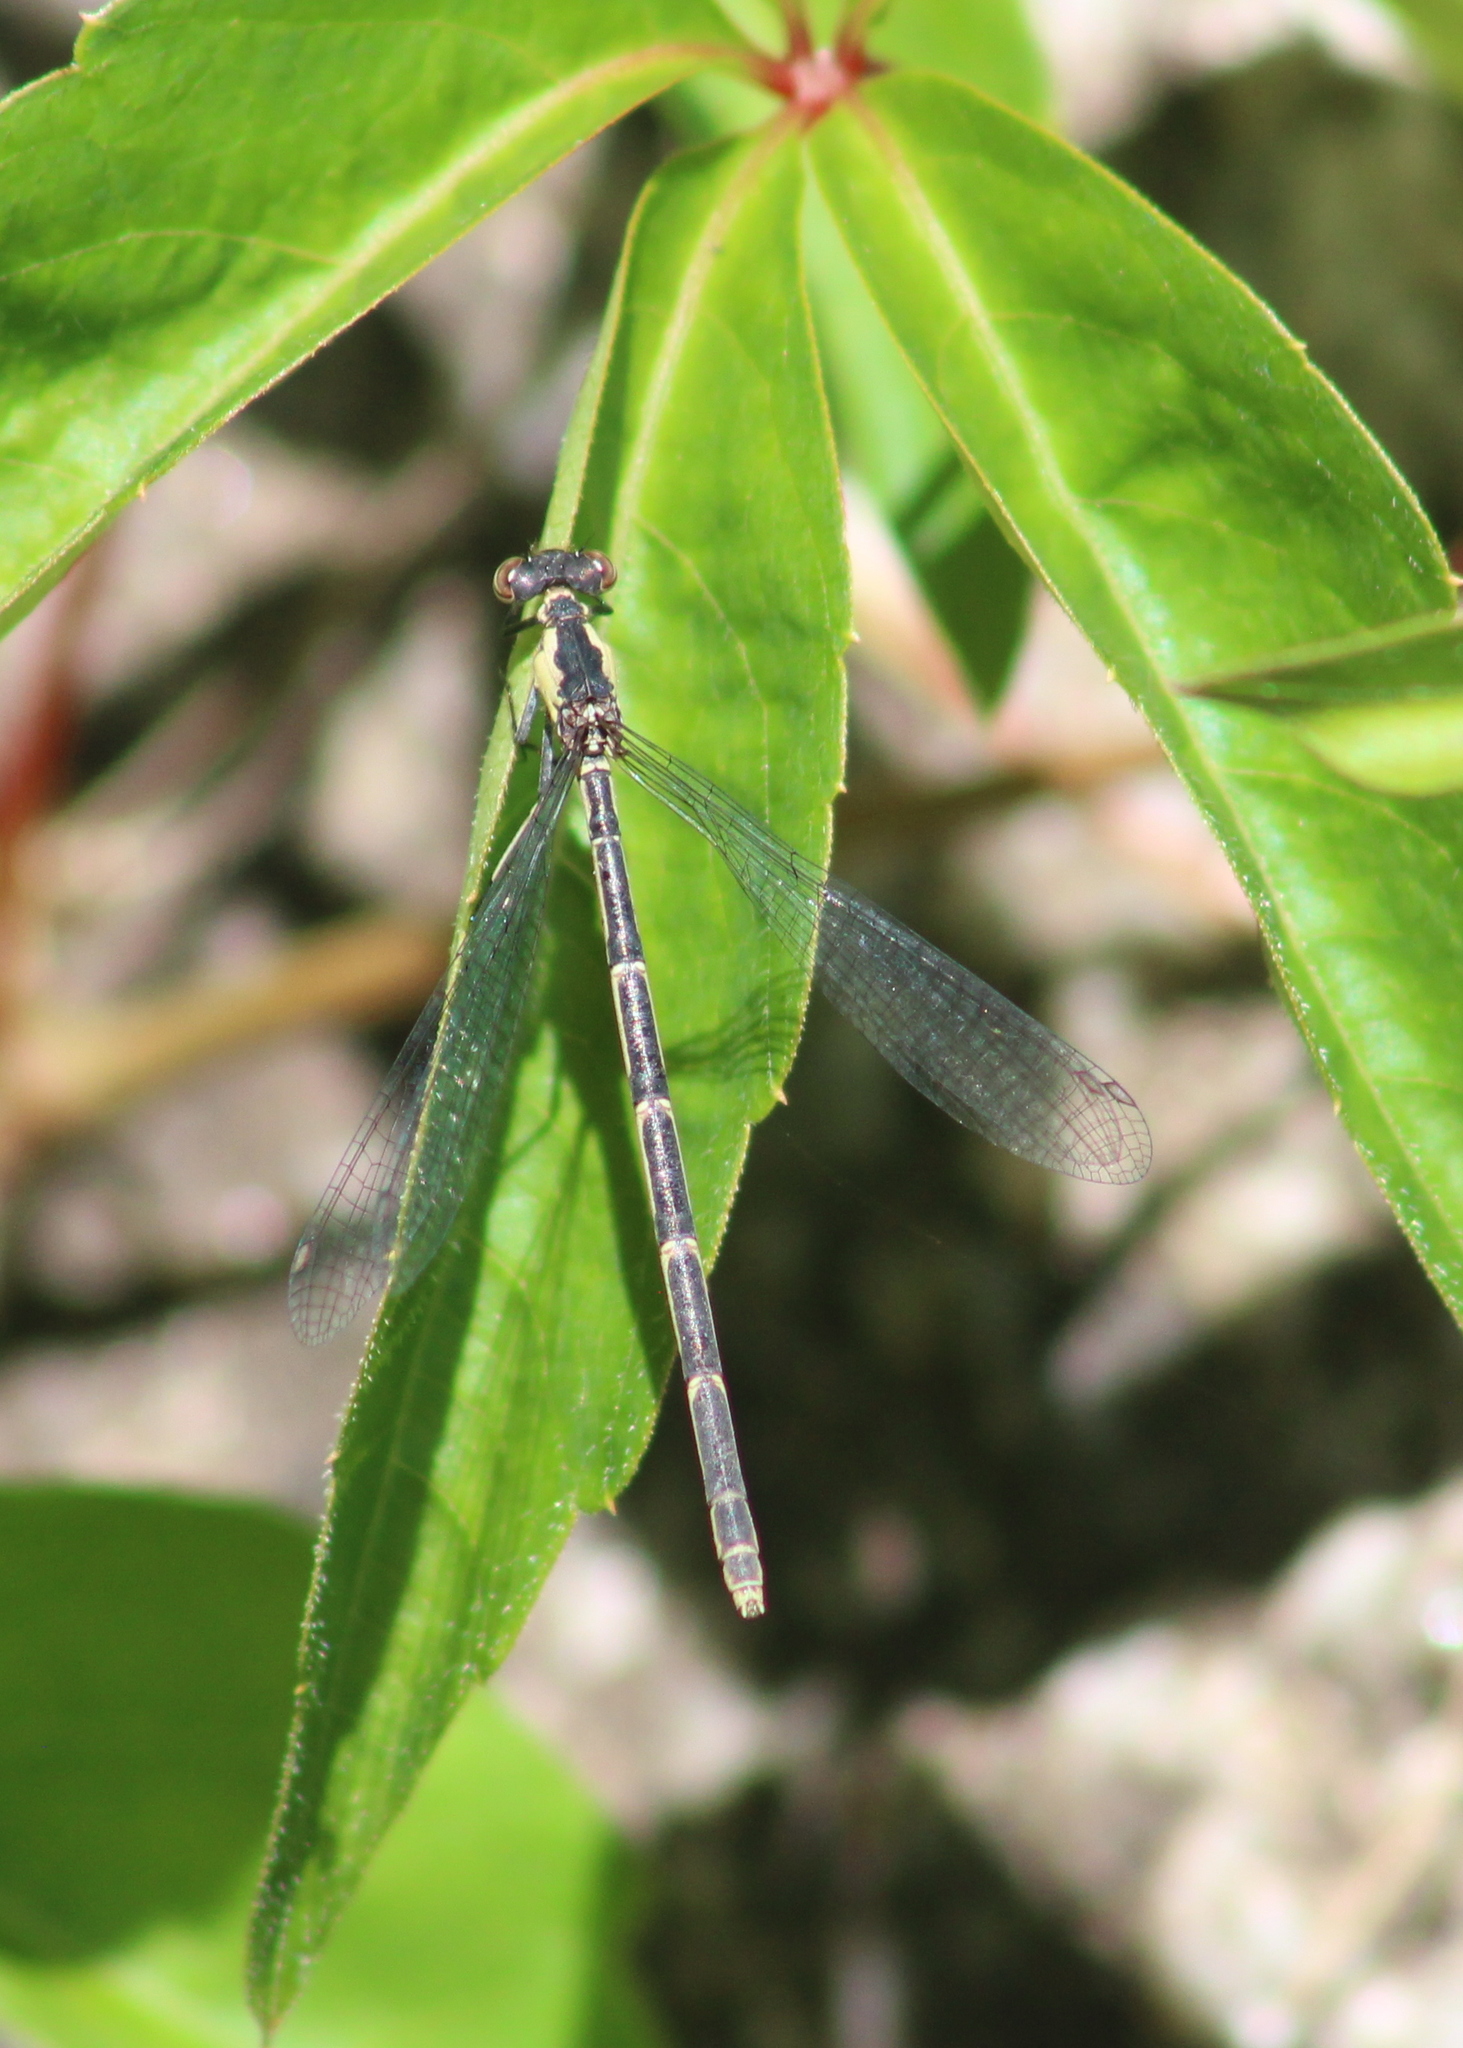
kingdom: Animalia
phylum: Arthropoda
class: Insecta
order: Odonata
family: Coenagrionidae
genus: Chromagrion
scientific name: Chromagrion conditum
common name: Aurora damsel
